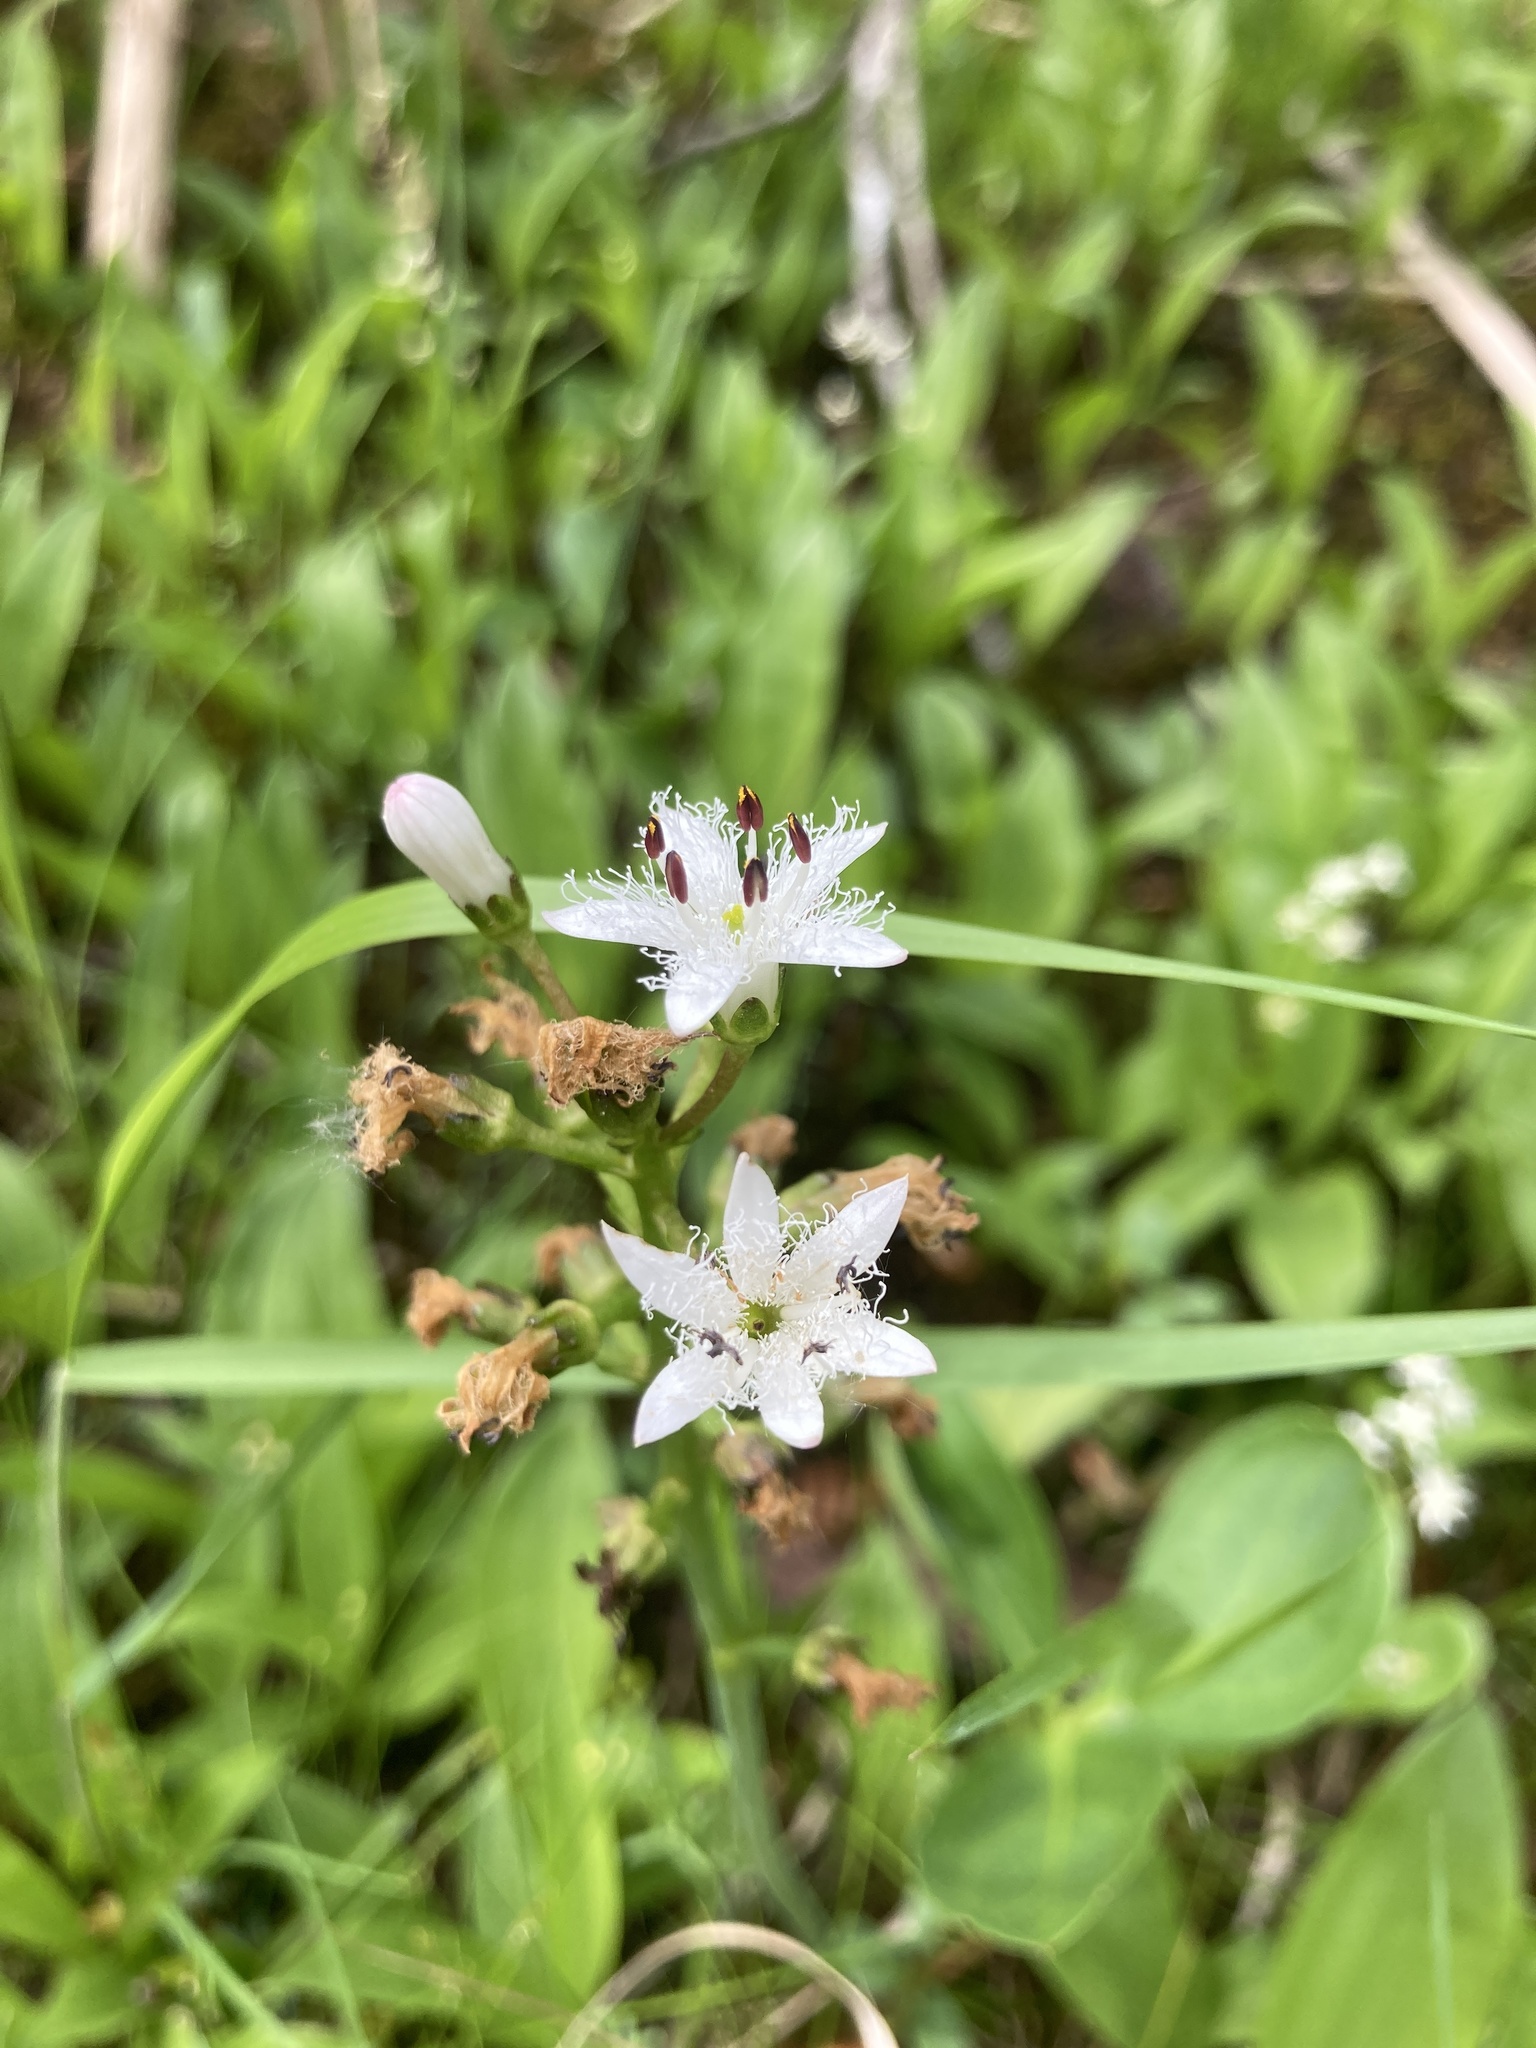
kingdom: Plantae
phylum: Tracheophyta
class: Magnoliopsida
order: Asterales
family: Menyanthaceae
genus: Menyanthes
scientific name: Menyanthes trifoliata
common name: Bogbean
